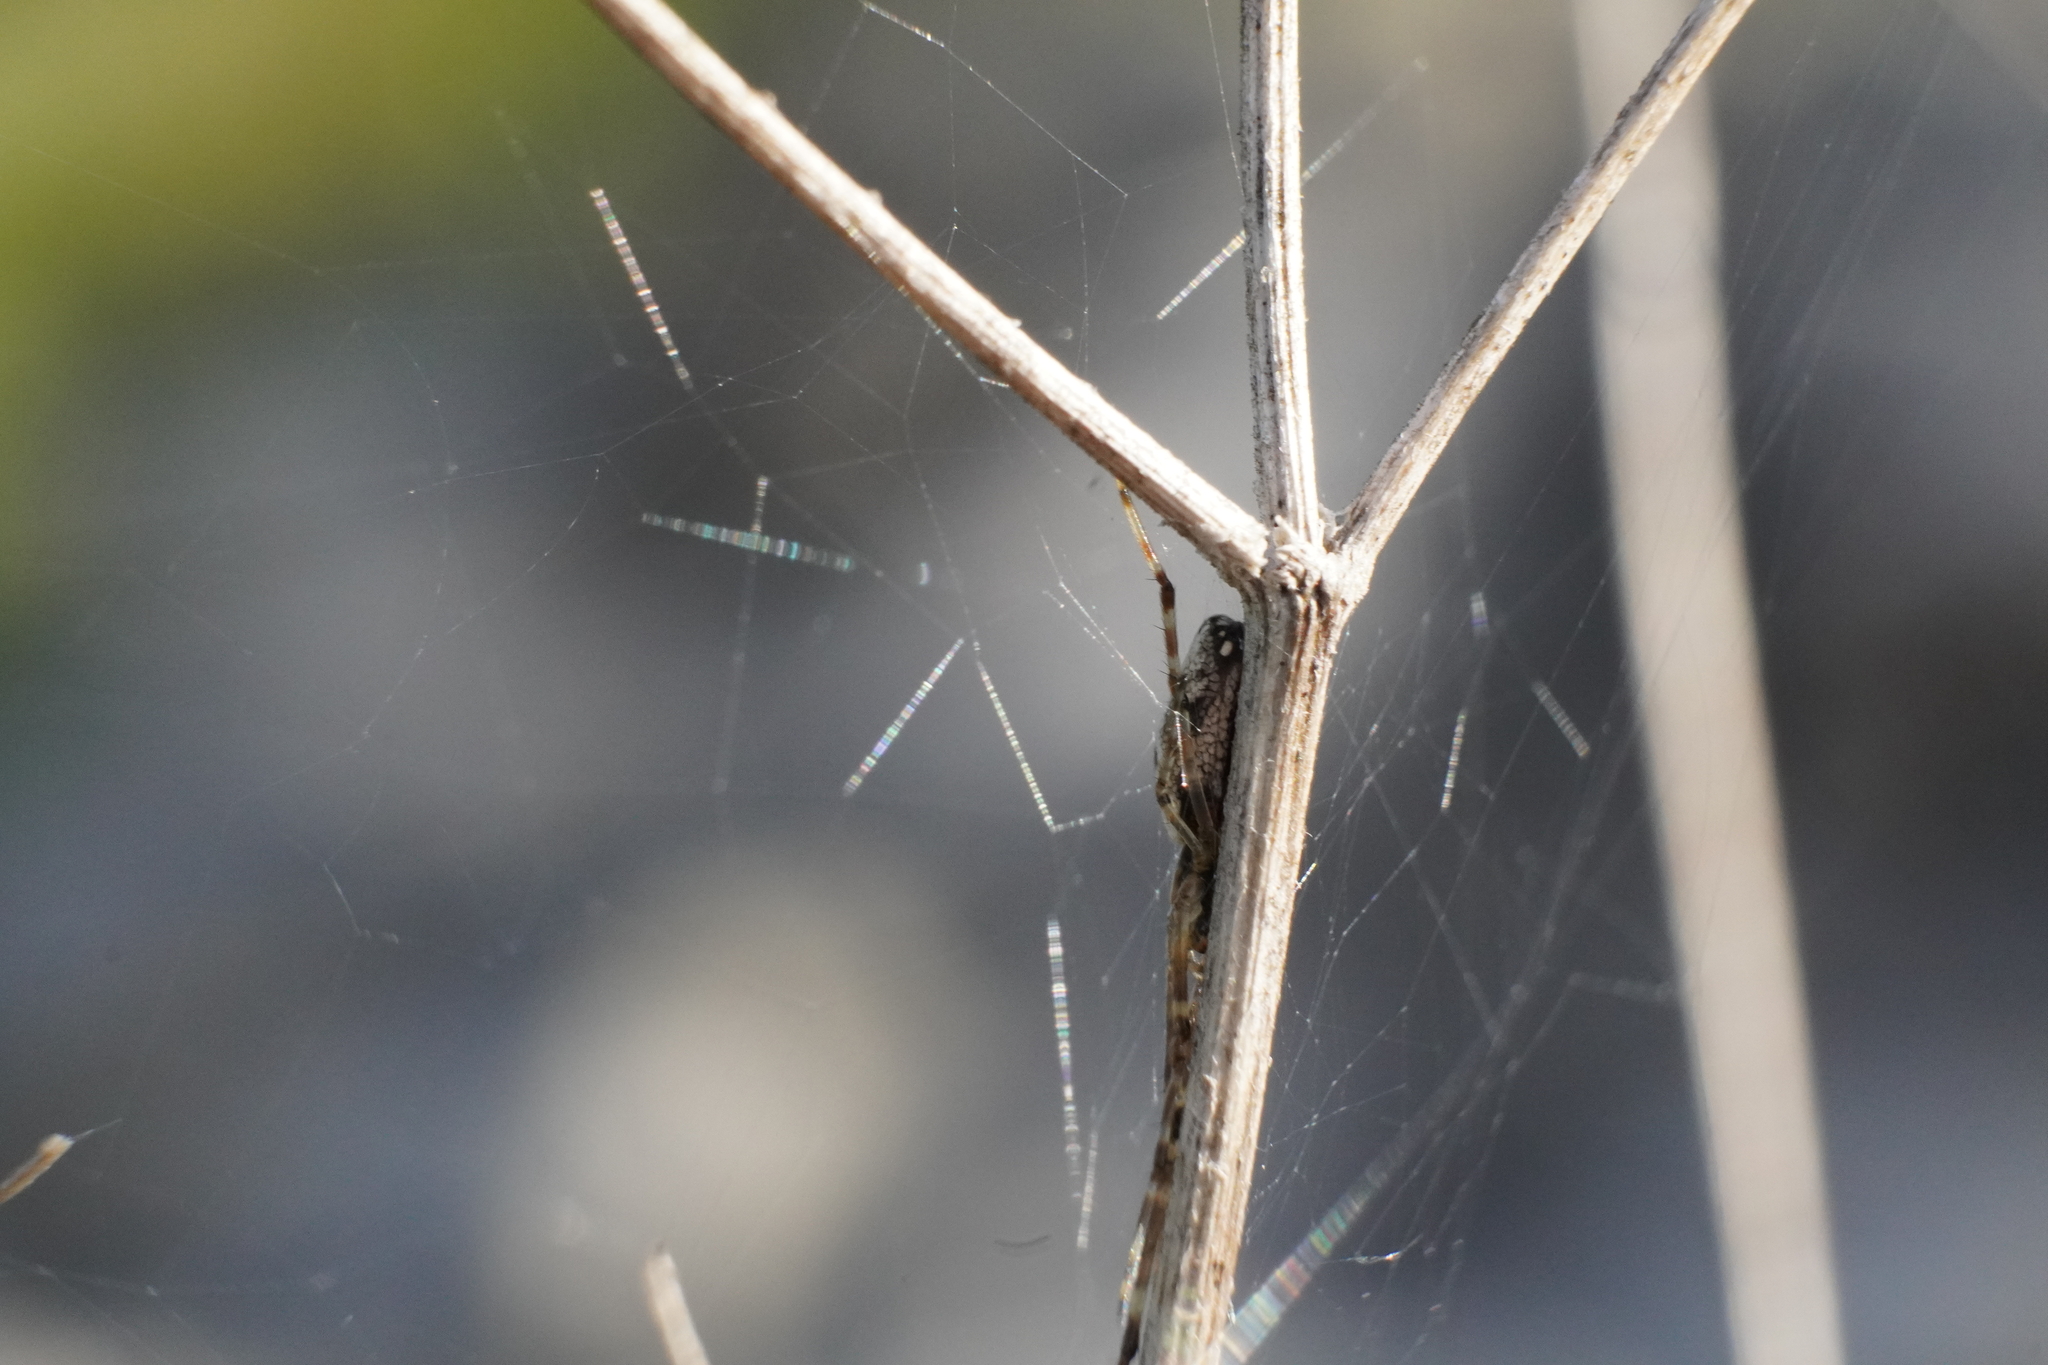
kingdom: Animalia
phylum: Arthropoda
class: Arachnida
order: Araneae
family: Tetragnathidae
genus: Tetragnatha
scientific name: Tetragnatha elongata
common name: Longjawed orb weavers
